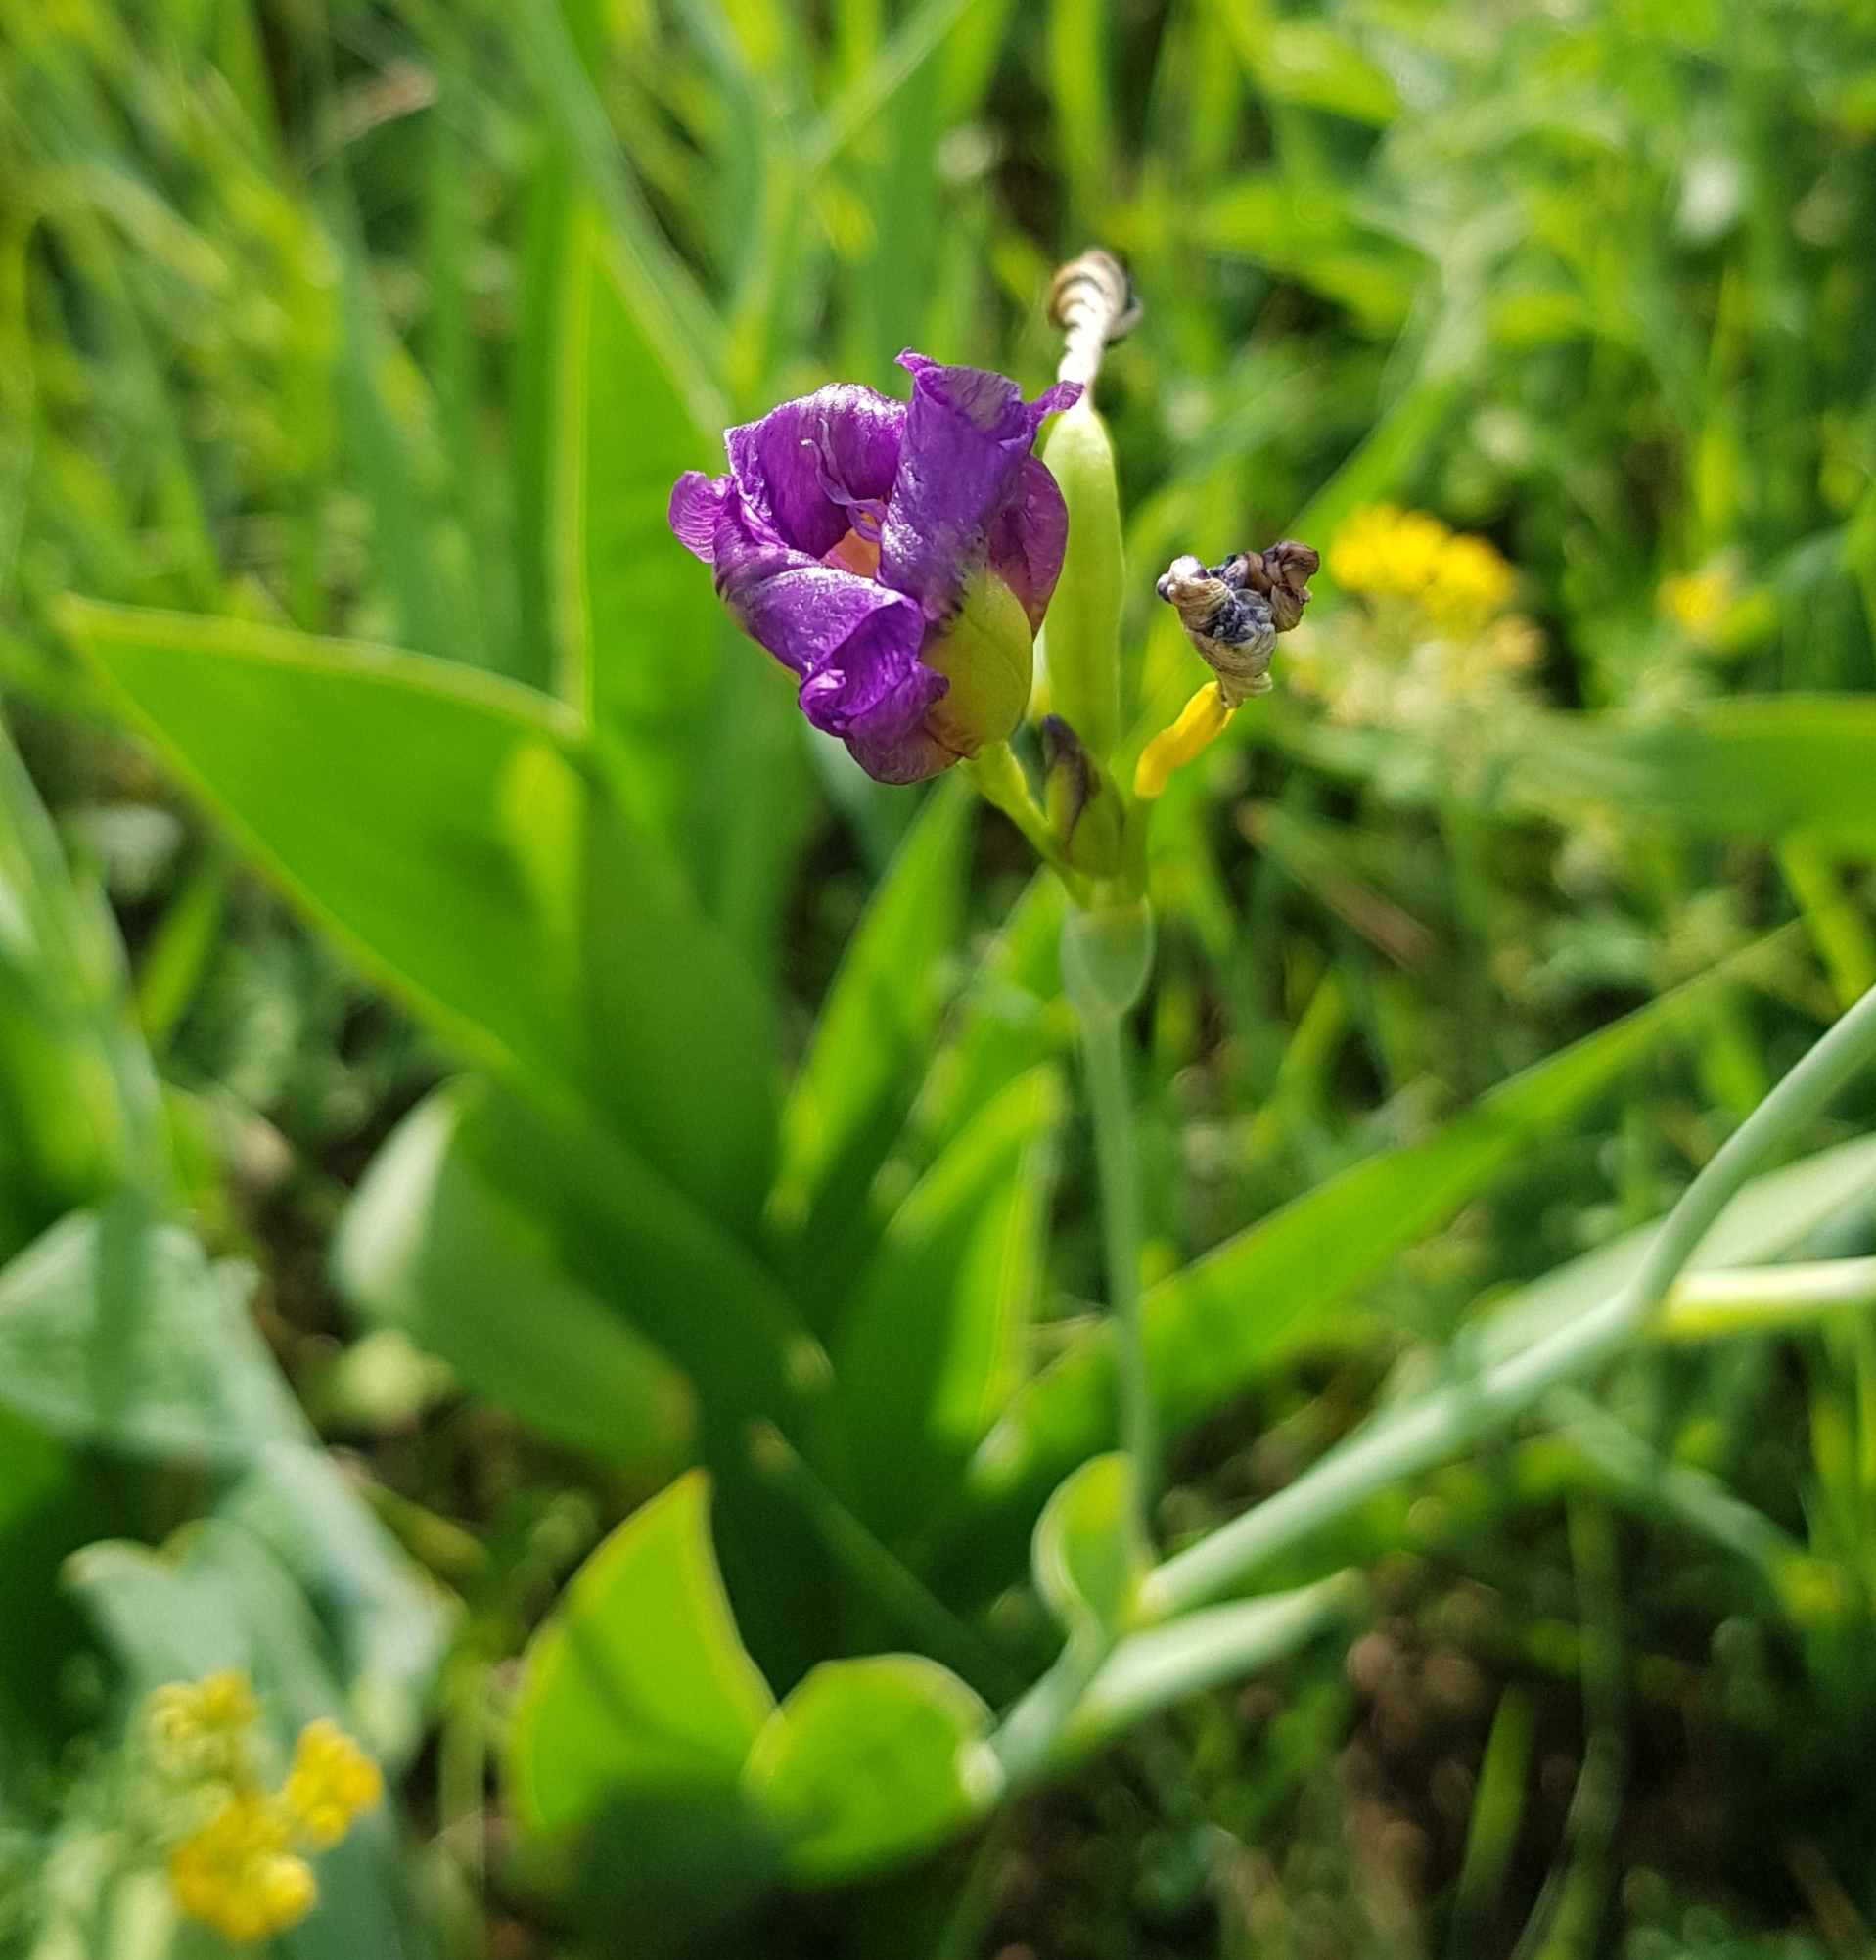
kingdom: Plantae
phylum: Tracheophyta
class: Liliopsida
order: Asparagales
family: Iridaceae
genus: Iris
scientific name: Iris dichotoma
